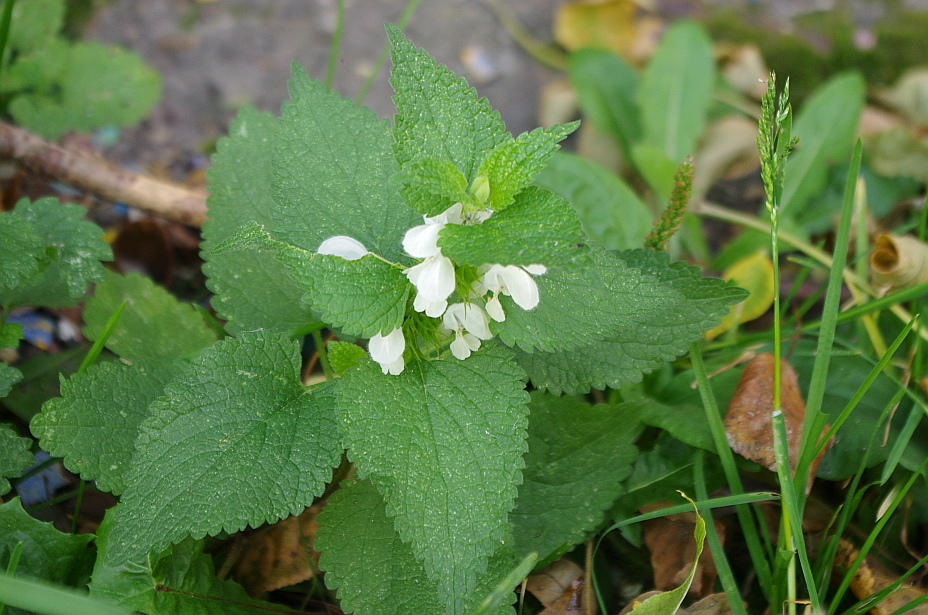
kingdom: Plantae
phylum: Tracheophyta
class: Magnoliopsida
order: Lamiales
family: Lamiaceae
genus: Lamium
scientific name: Lamium album
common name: White dead-nettle
